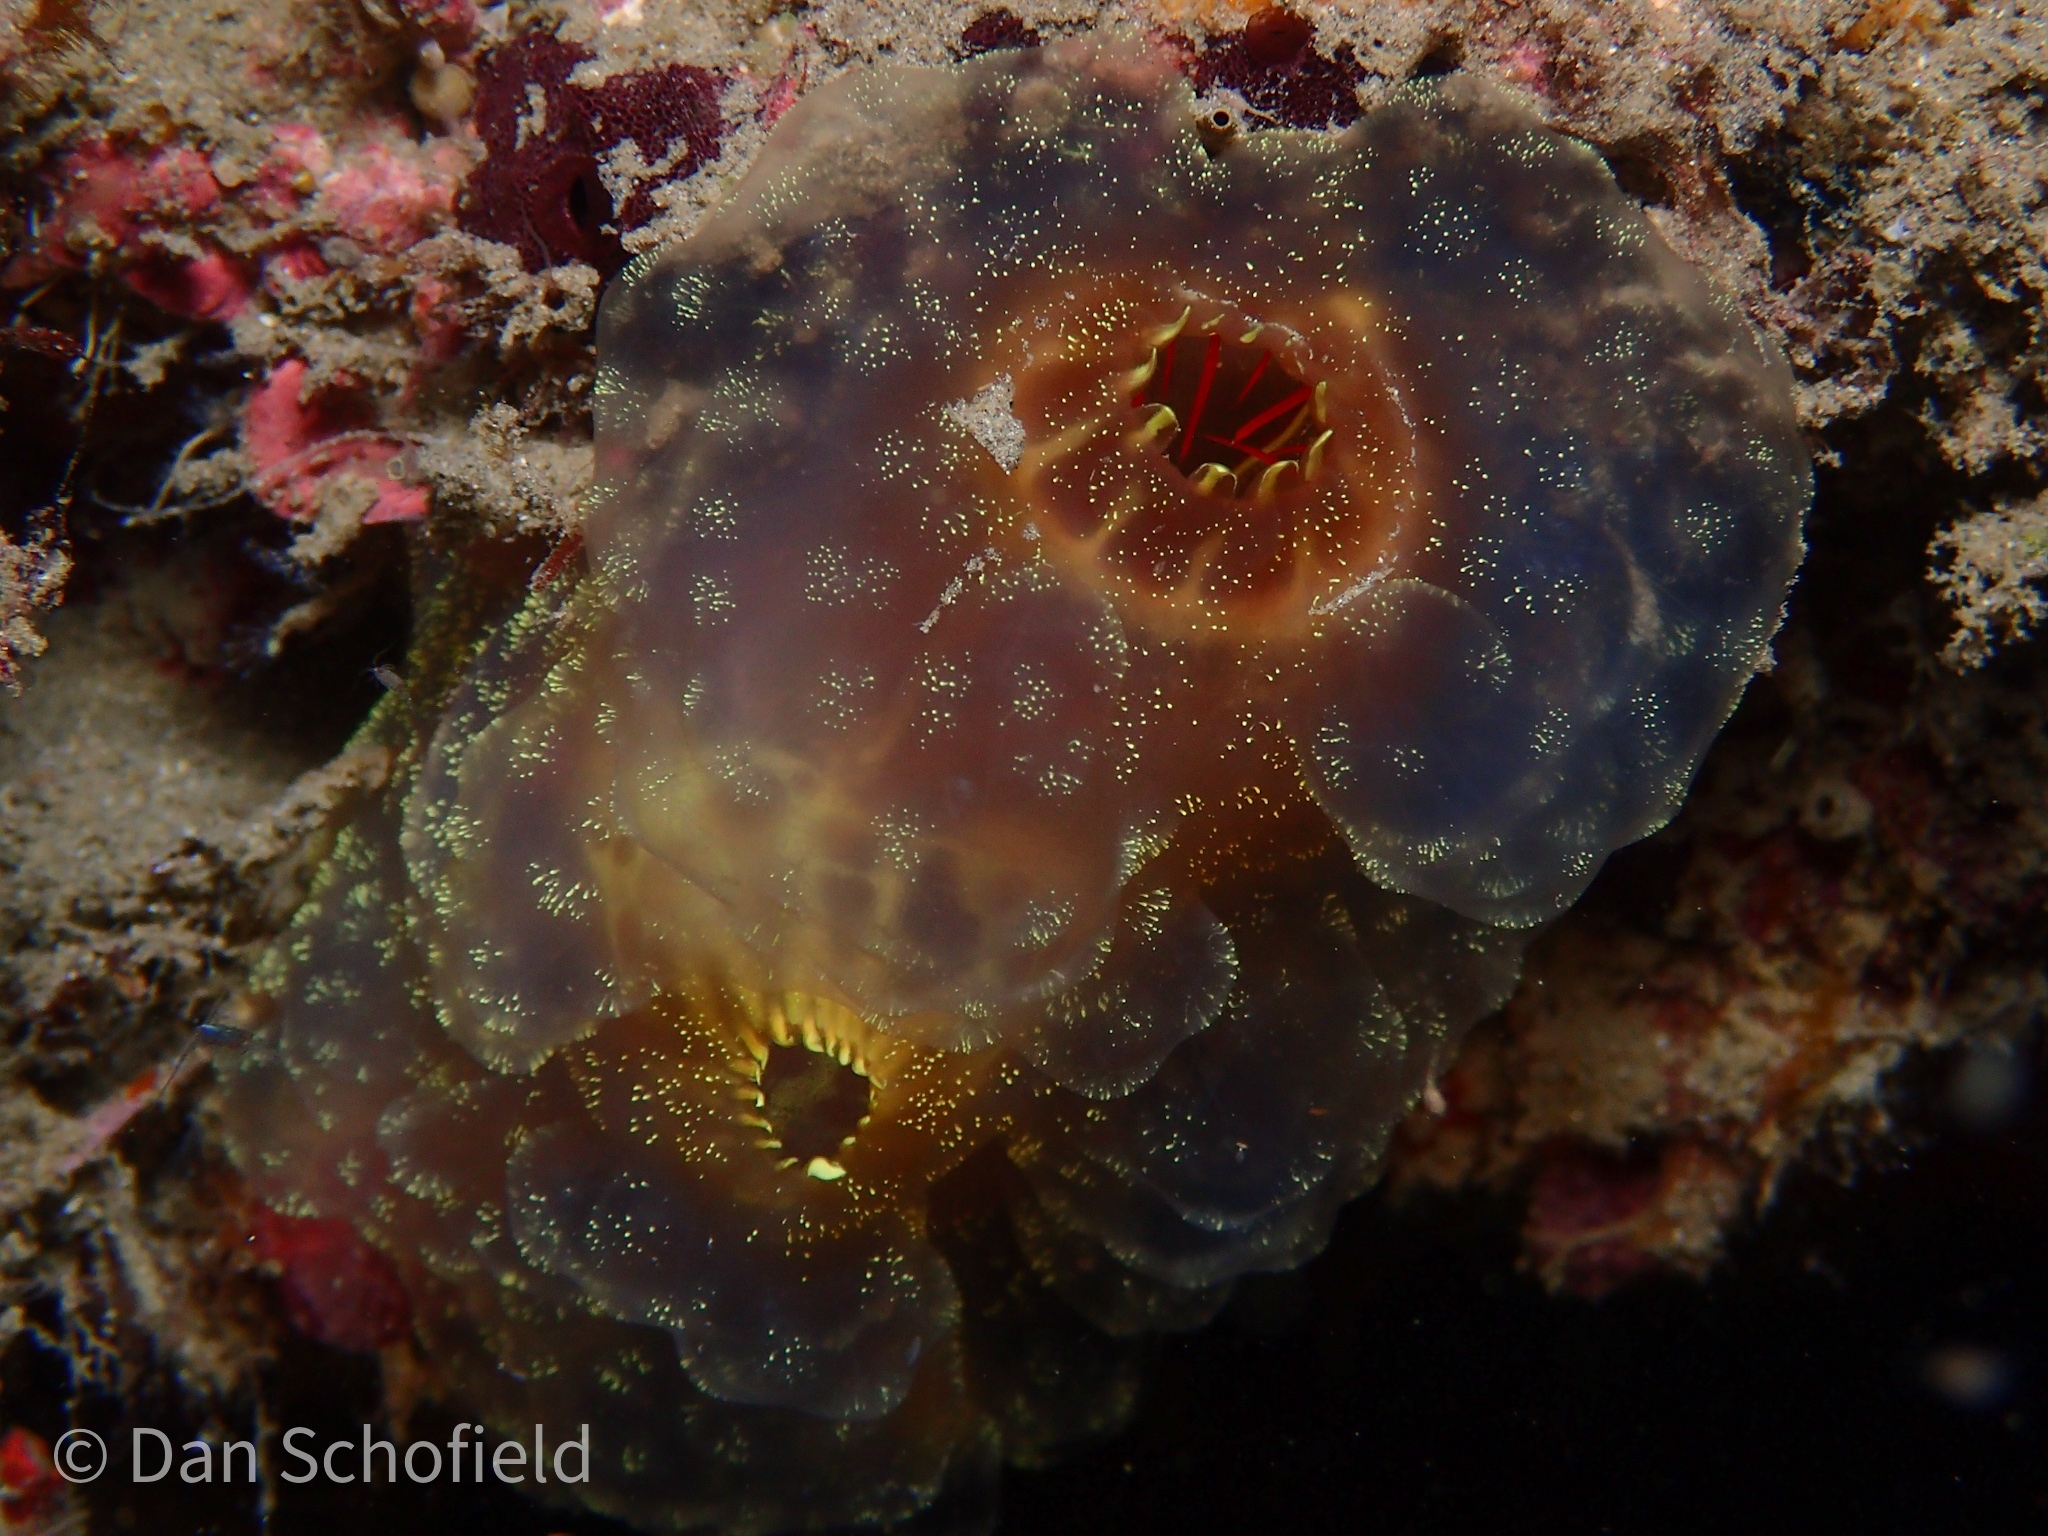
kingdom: Animalia
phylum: Chordata
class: Ascidiacea
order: Phlebobranchia
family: Ascidiidae
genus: Ascidia
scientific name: Ascidia ornata
